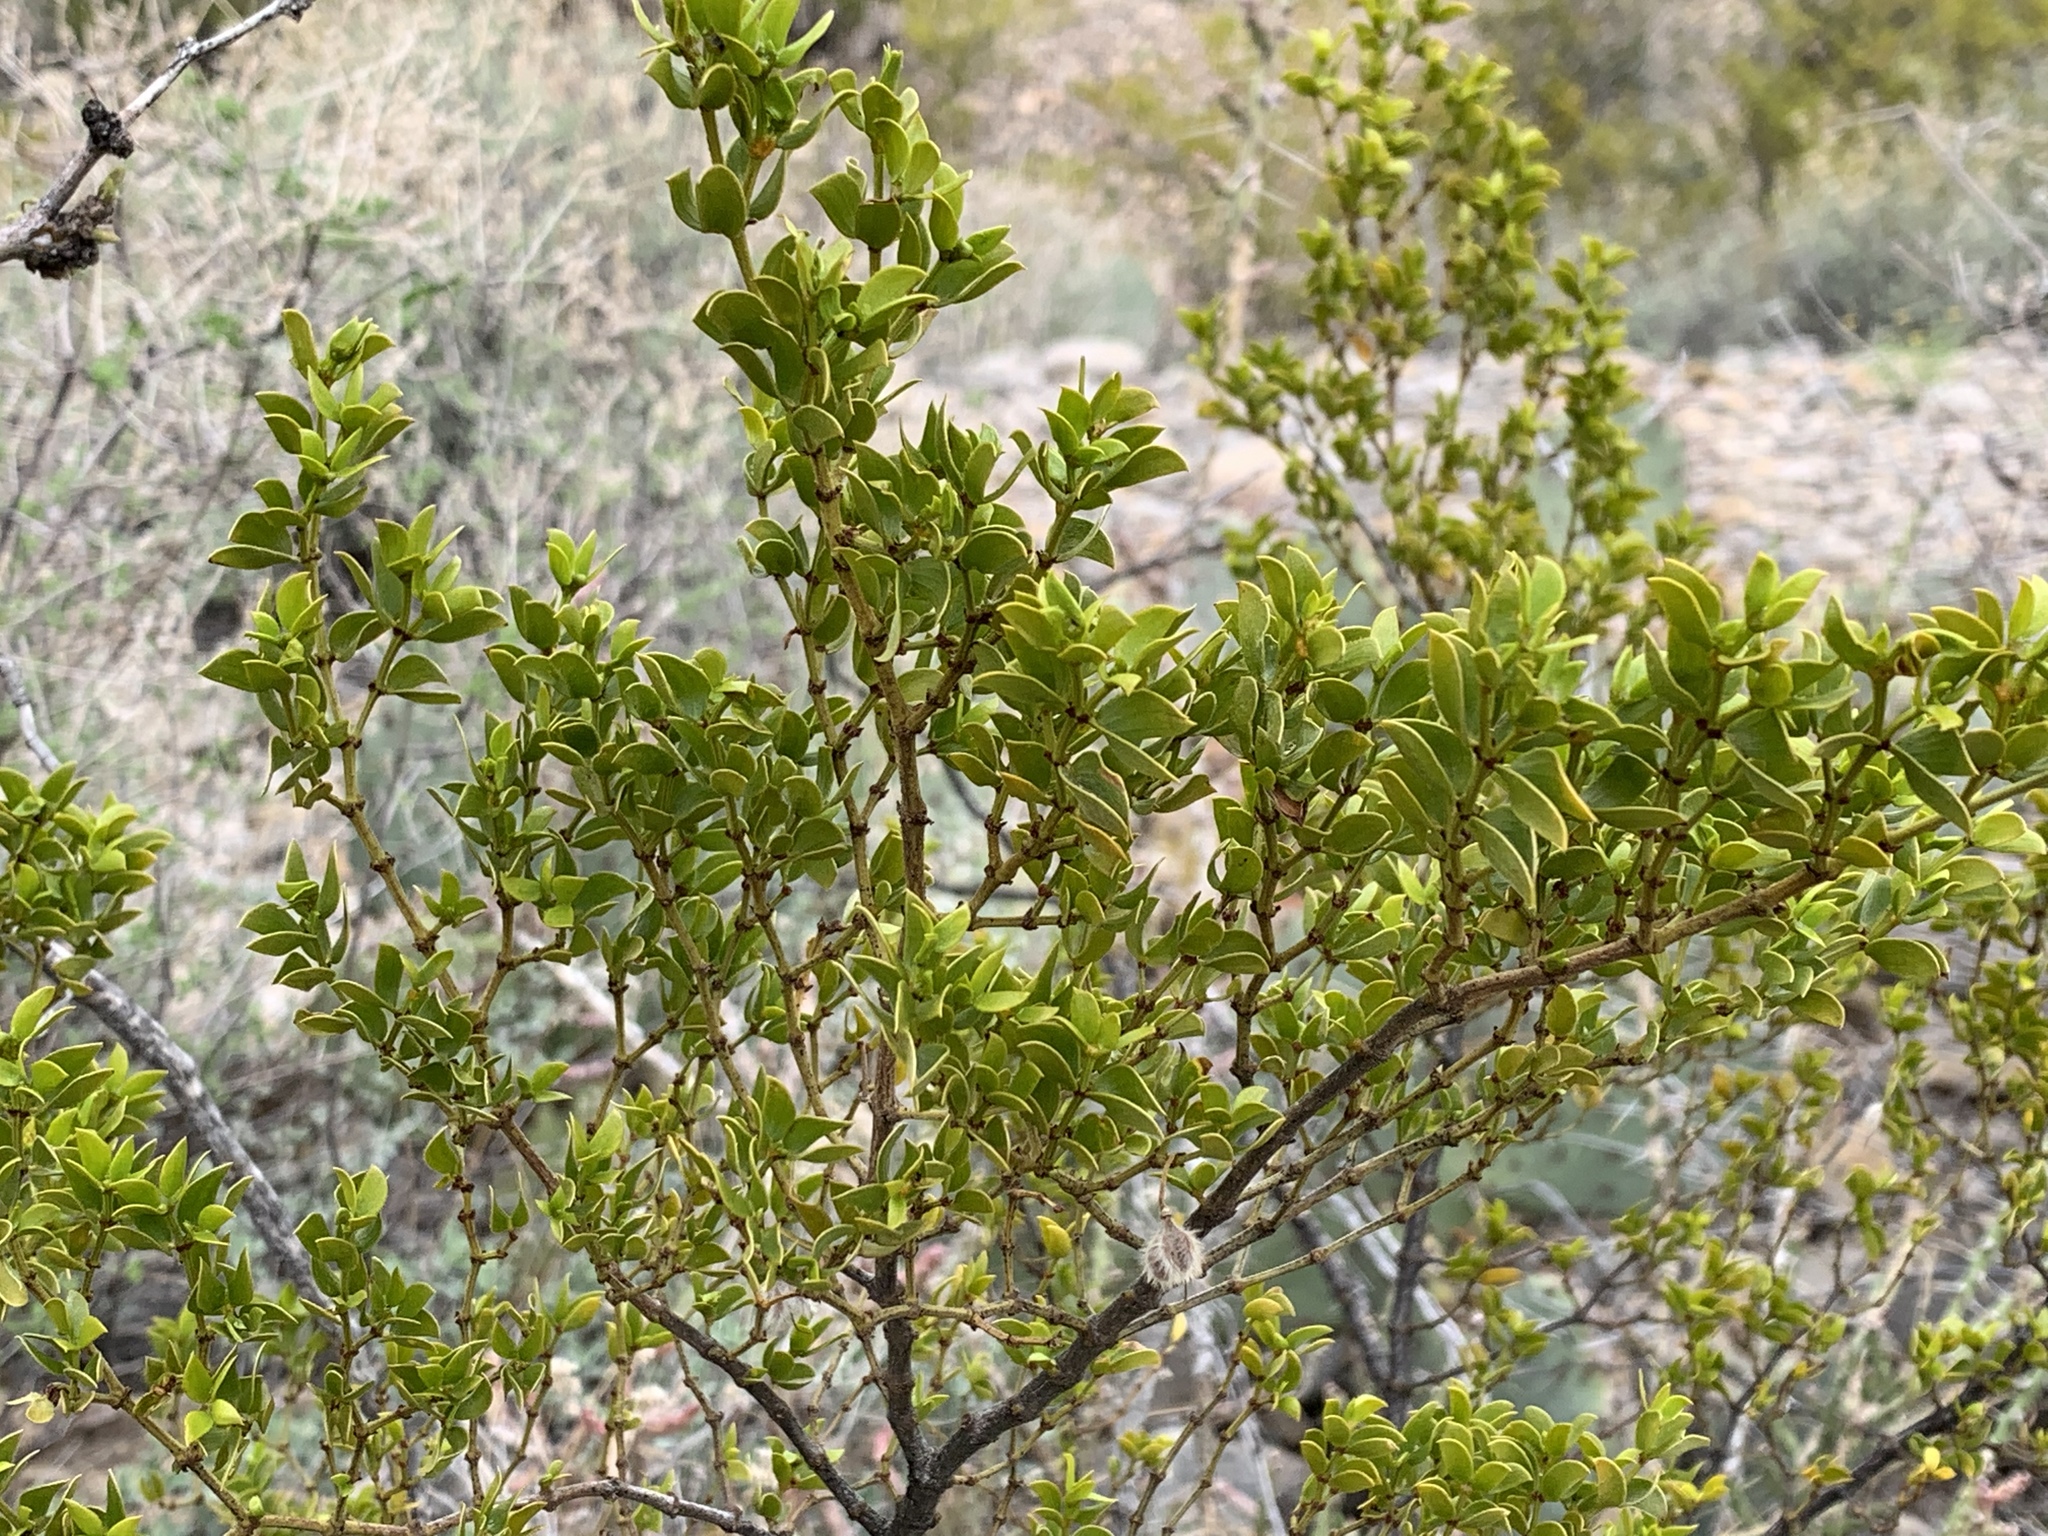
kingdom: Plantae
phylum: Tracheophyta
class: Magnoliopsida
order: Zygophyllales
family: Zygophyllaceae
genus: Larrea
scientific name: Larrea tridentata
